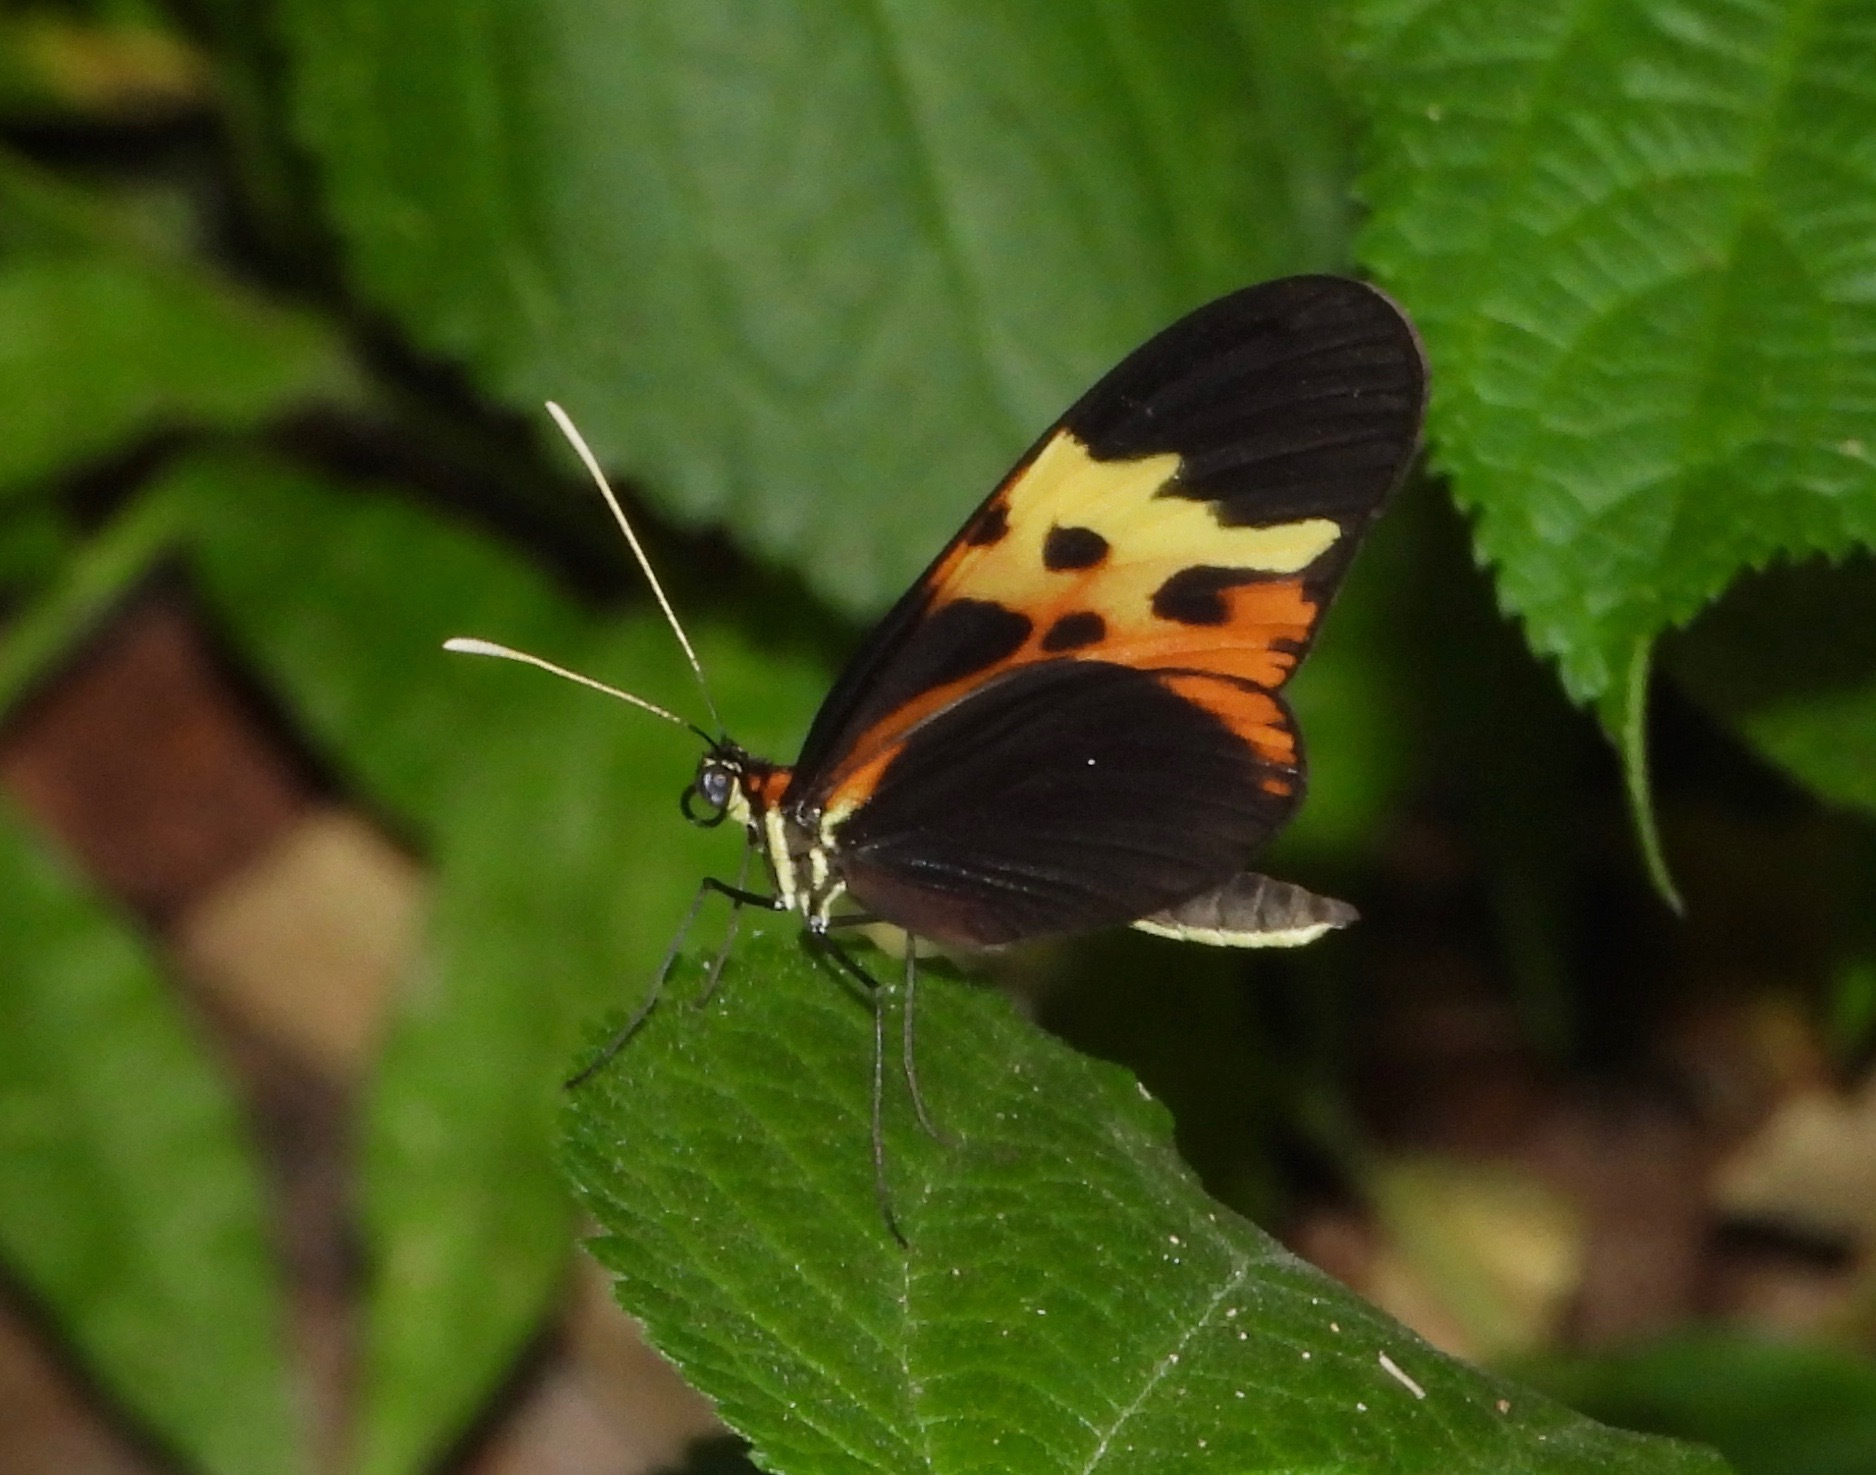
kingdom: Animalia
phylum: Arthropoda
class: Insecta
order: Lepidoptera
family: Nymphalidae
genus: Mechanitis
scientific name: Mechanitis mazaeus
